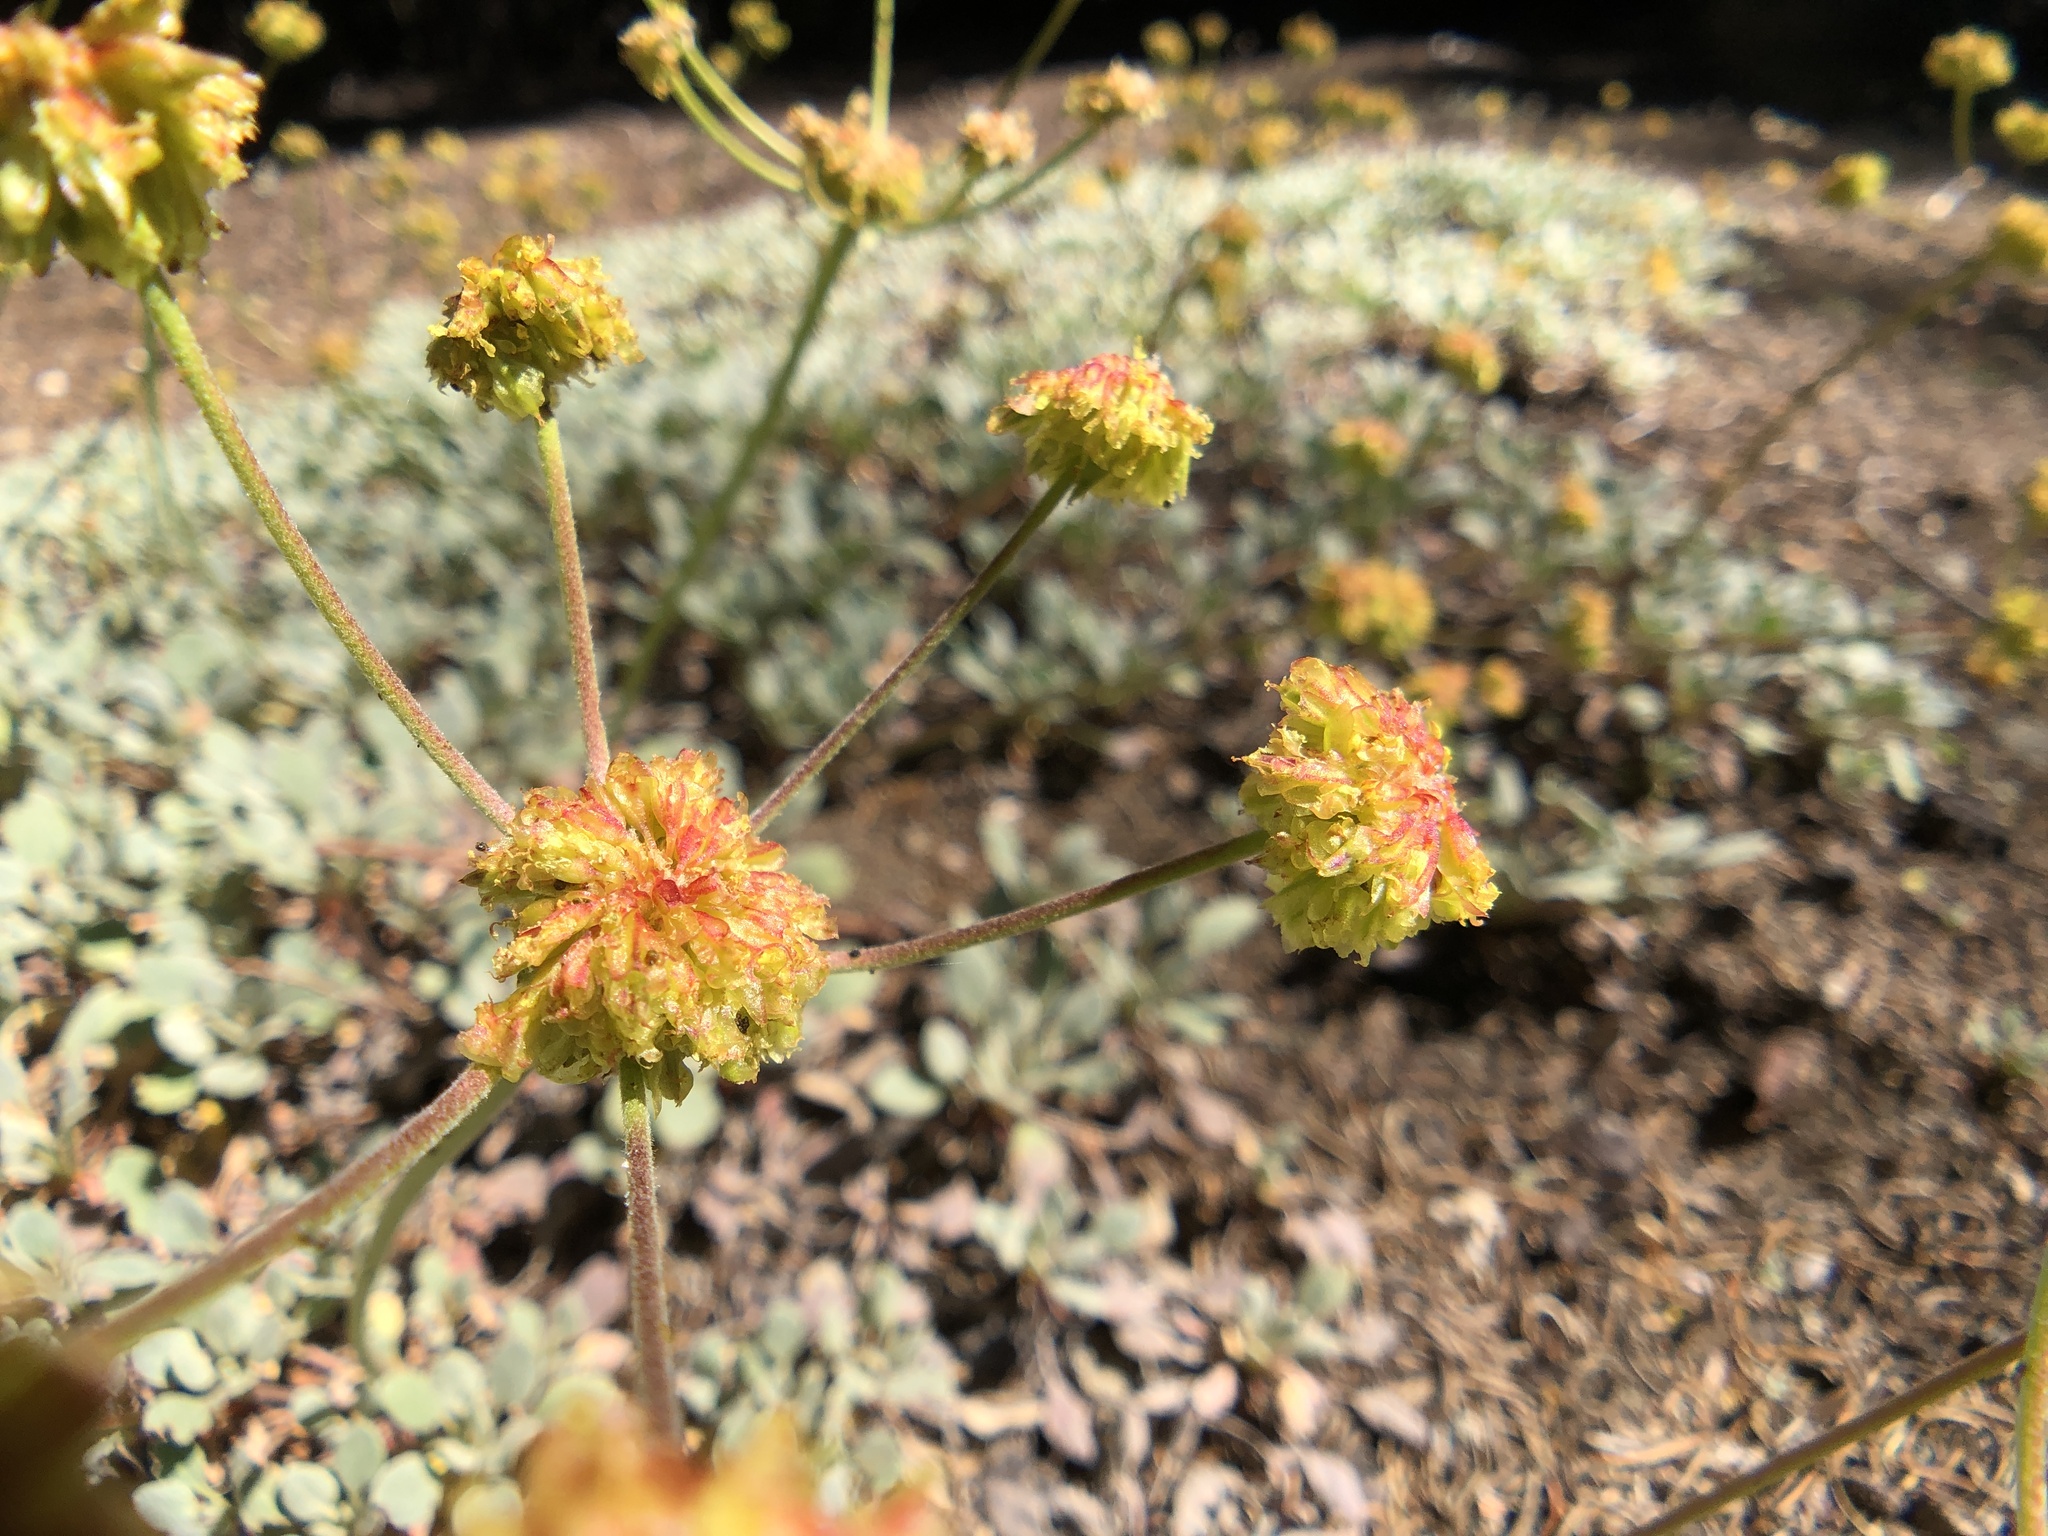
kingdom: Plantae
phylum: Tracheophyta
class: Magnoliopsida
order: Caryophyllales
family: Polygonaceae
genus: Eriogonum
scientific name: Eriogonum diclinum
